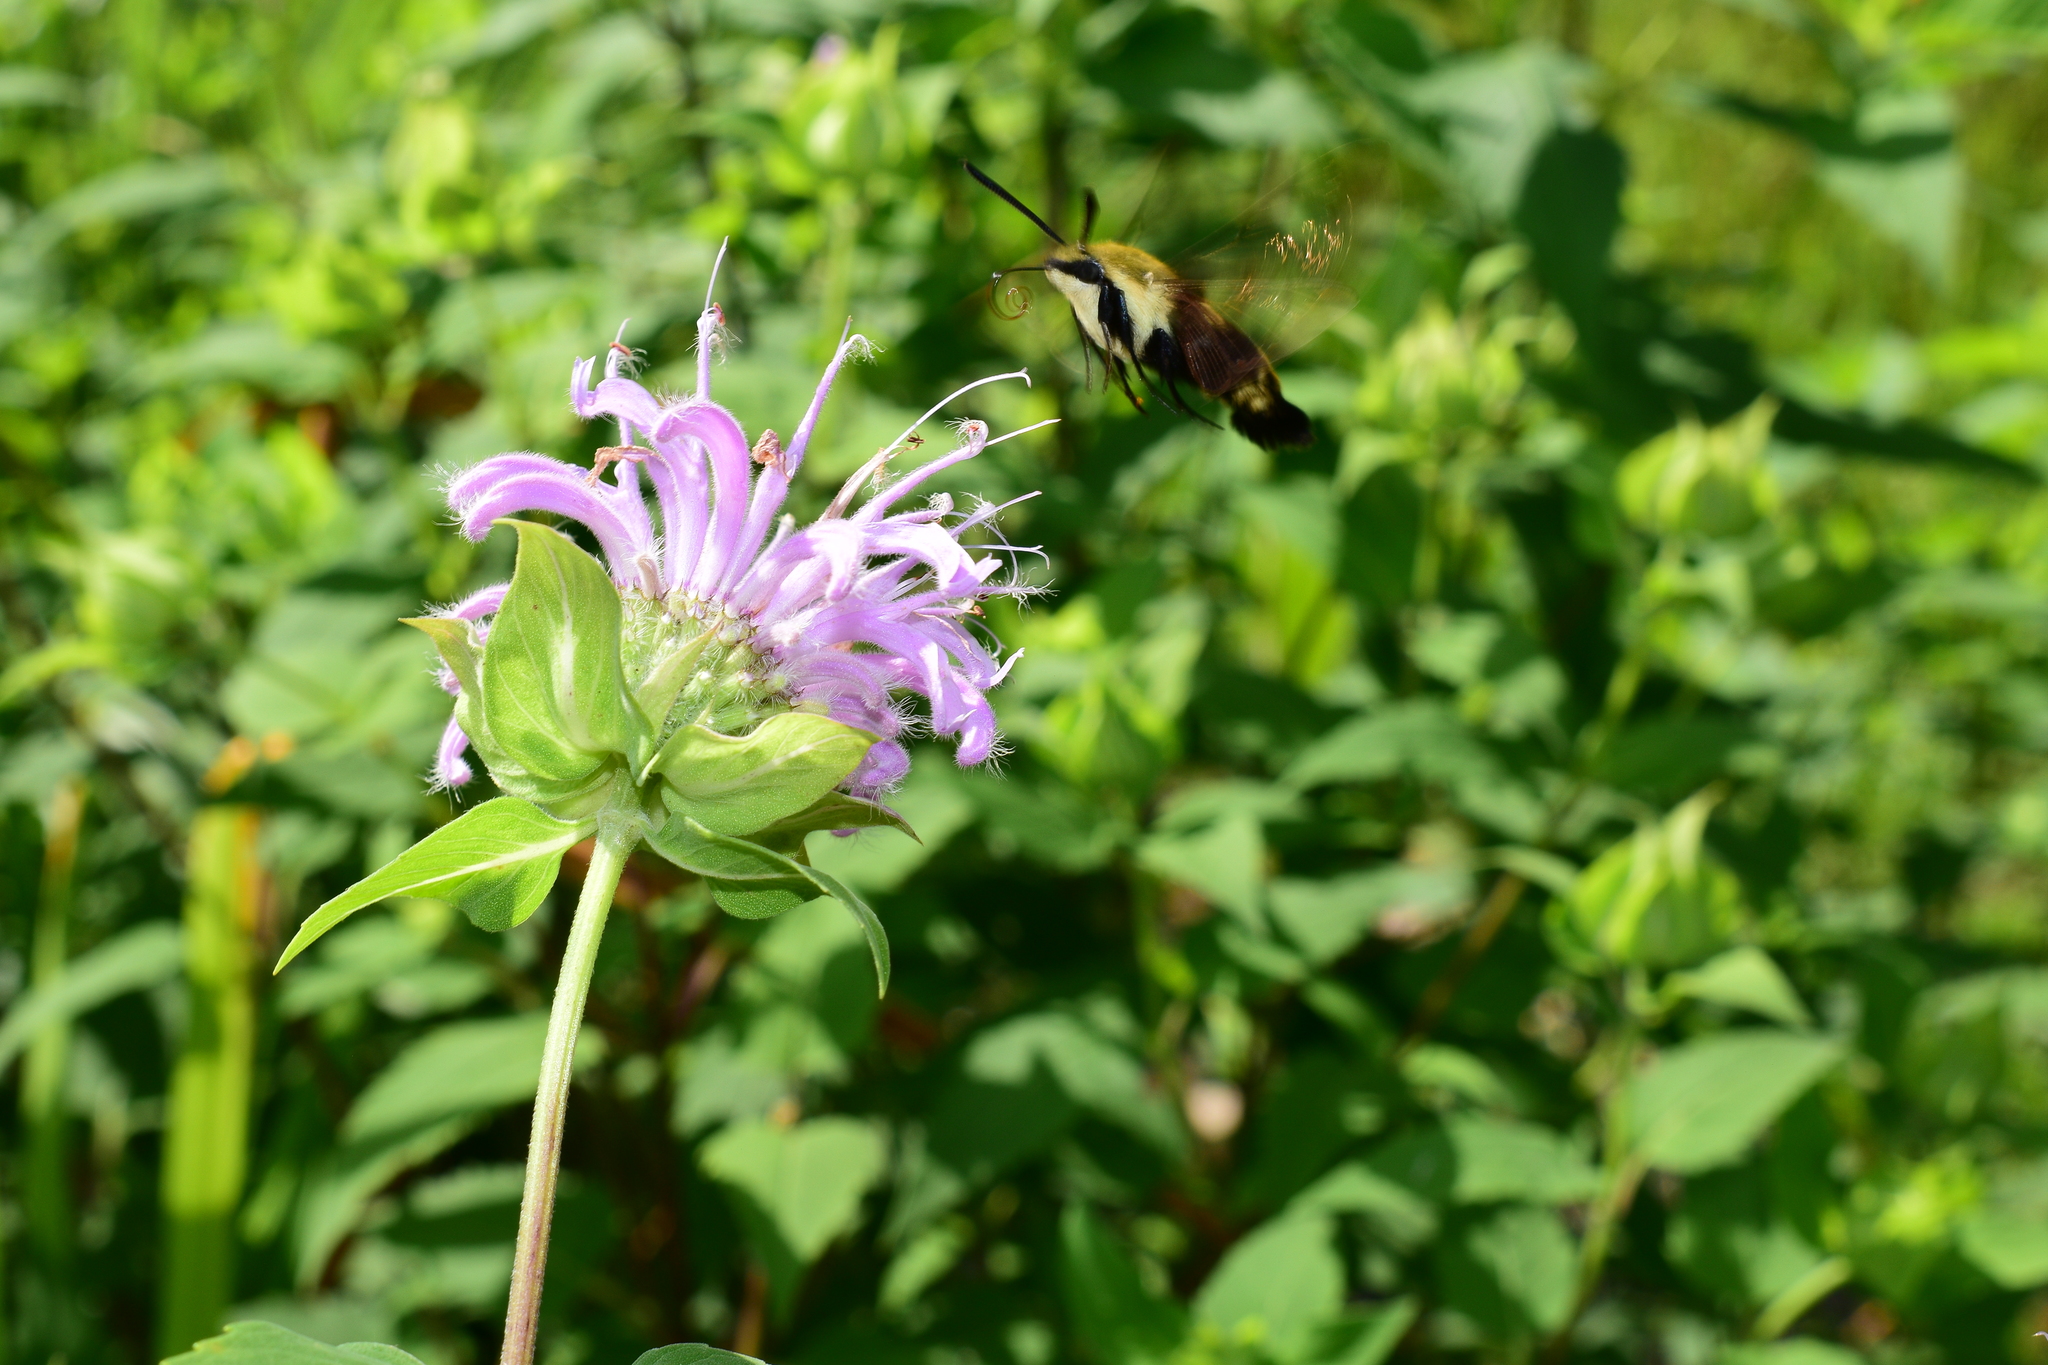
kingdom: Animalia
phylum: Arthropoda
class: Insecta
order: Lepidoptera
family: Sphingidae
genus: Hemaris
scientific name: Hemaris diffinis
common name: Bumblebee moth
